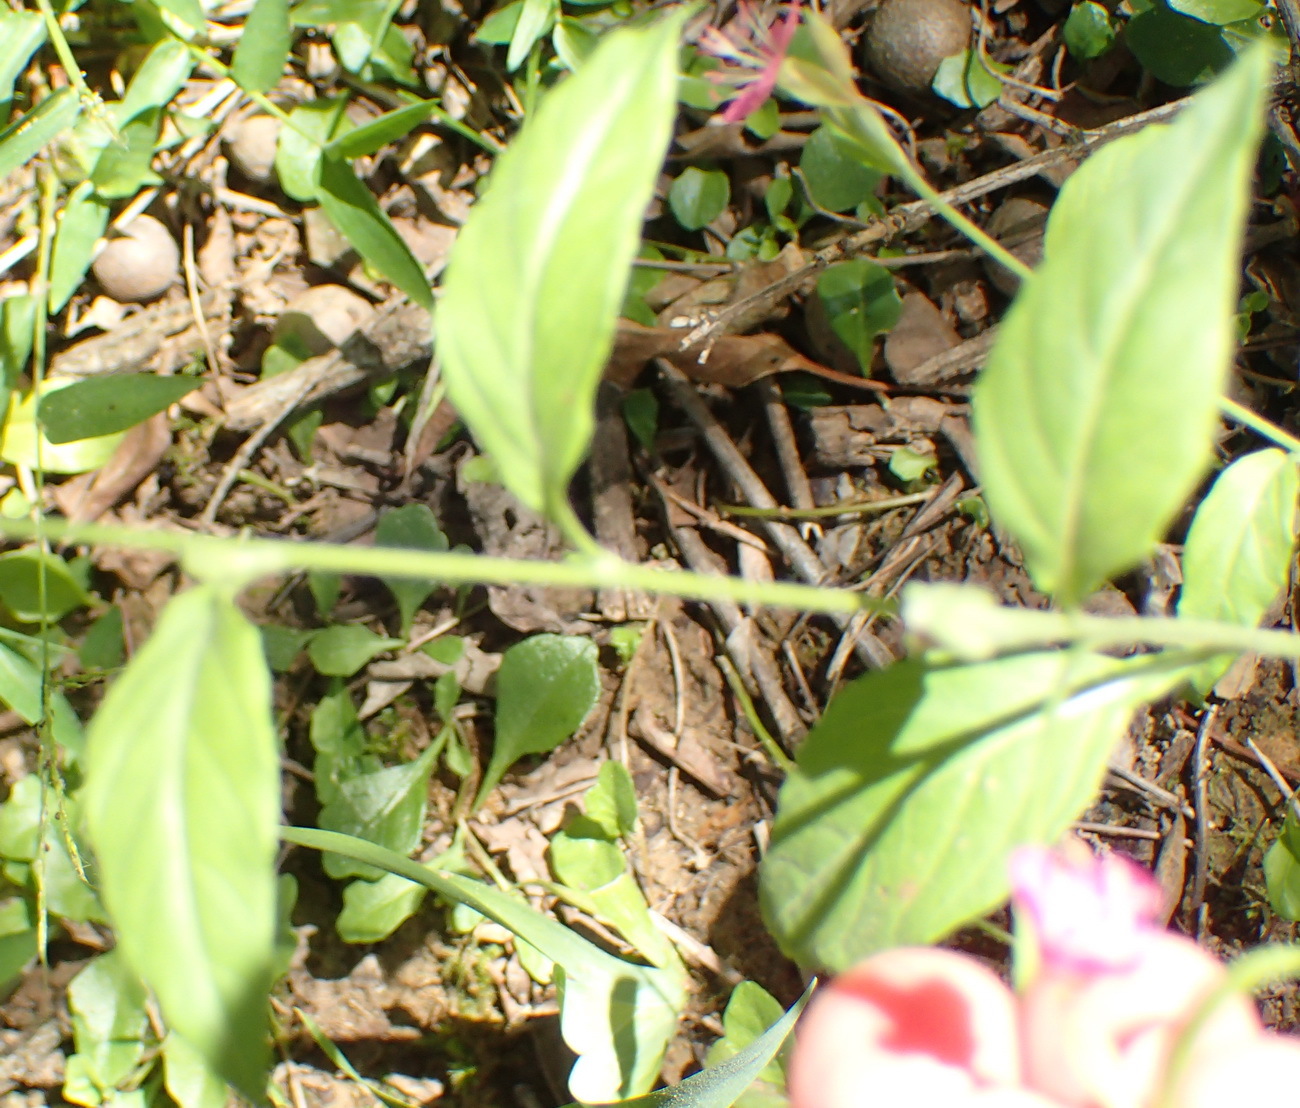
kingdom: Plantae
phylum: Tracheophyta
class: Magnoliopsida
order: Myrtales
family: Onagraceae
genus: Oenothera
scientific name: Oenothera rosea
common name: Rosy evening-primrose
